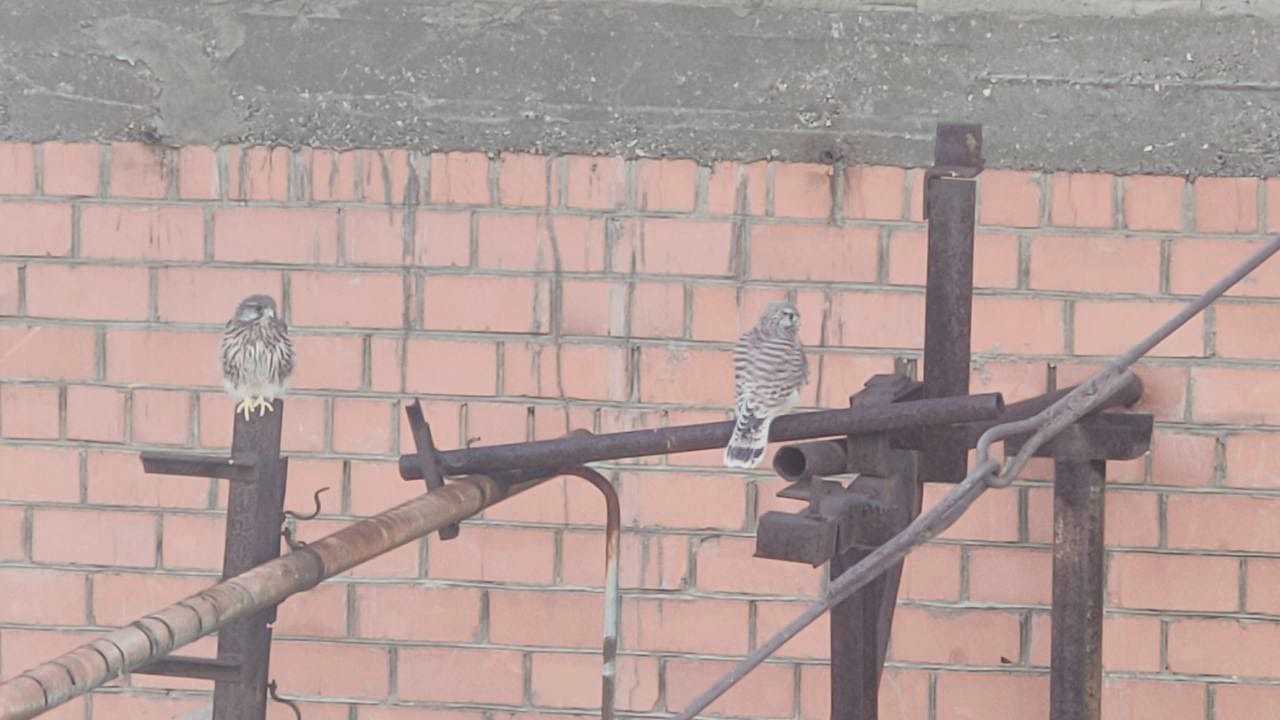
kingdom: Animalia
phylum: Chordata
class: Aves
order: Falconiformes
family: Falconidae
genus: Falco
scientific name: Falco tinnunculus
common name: Common kestrel
